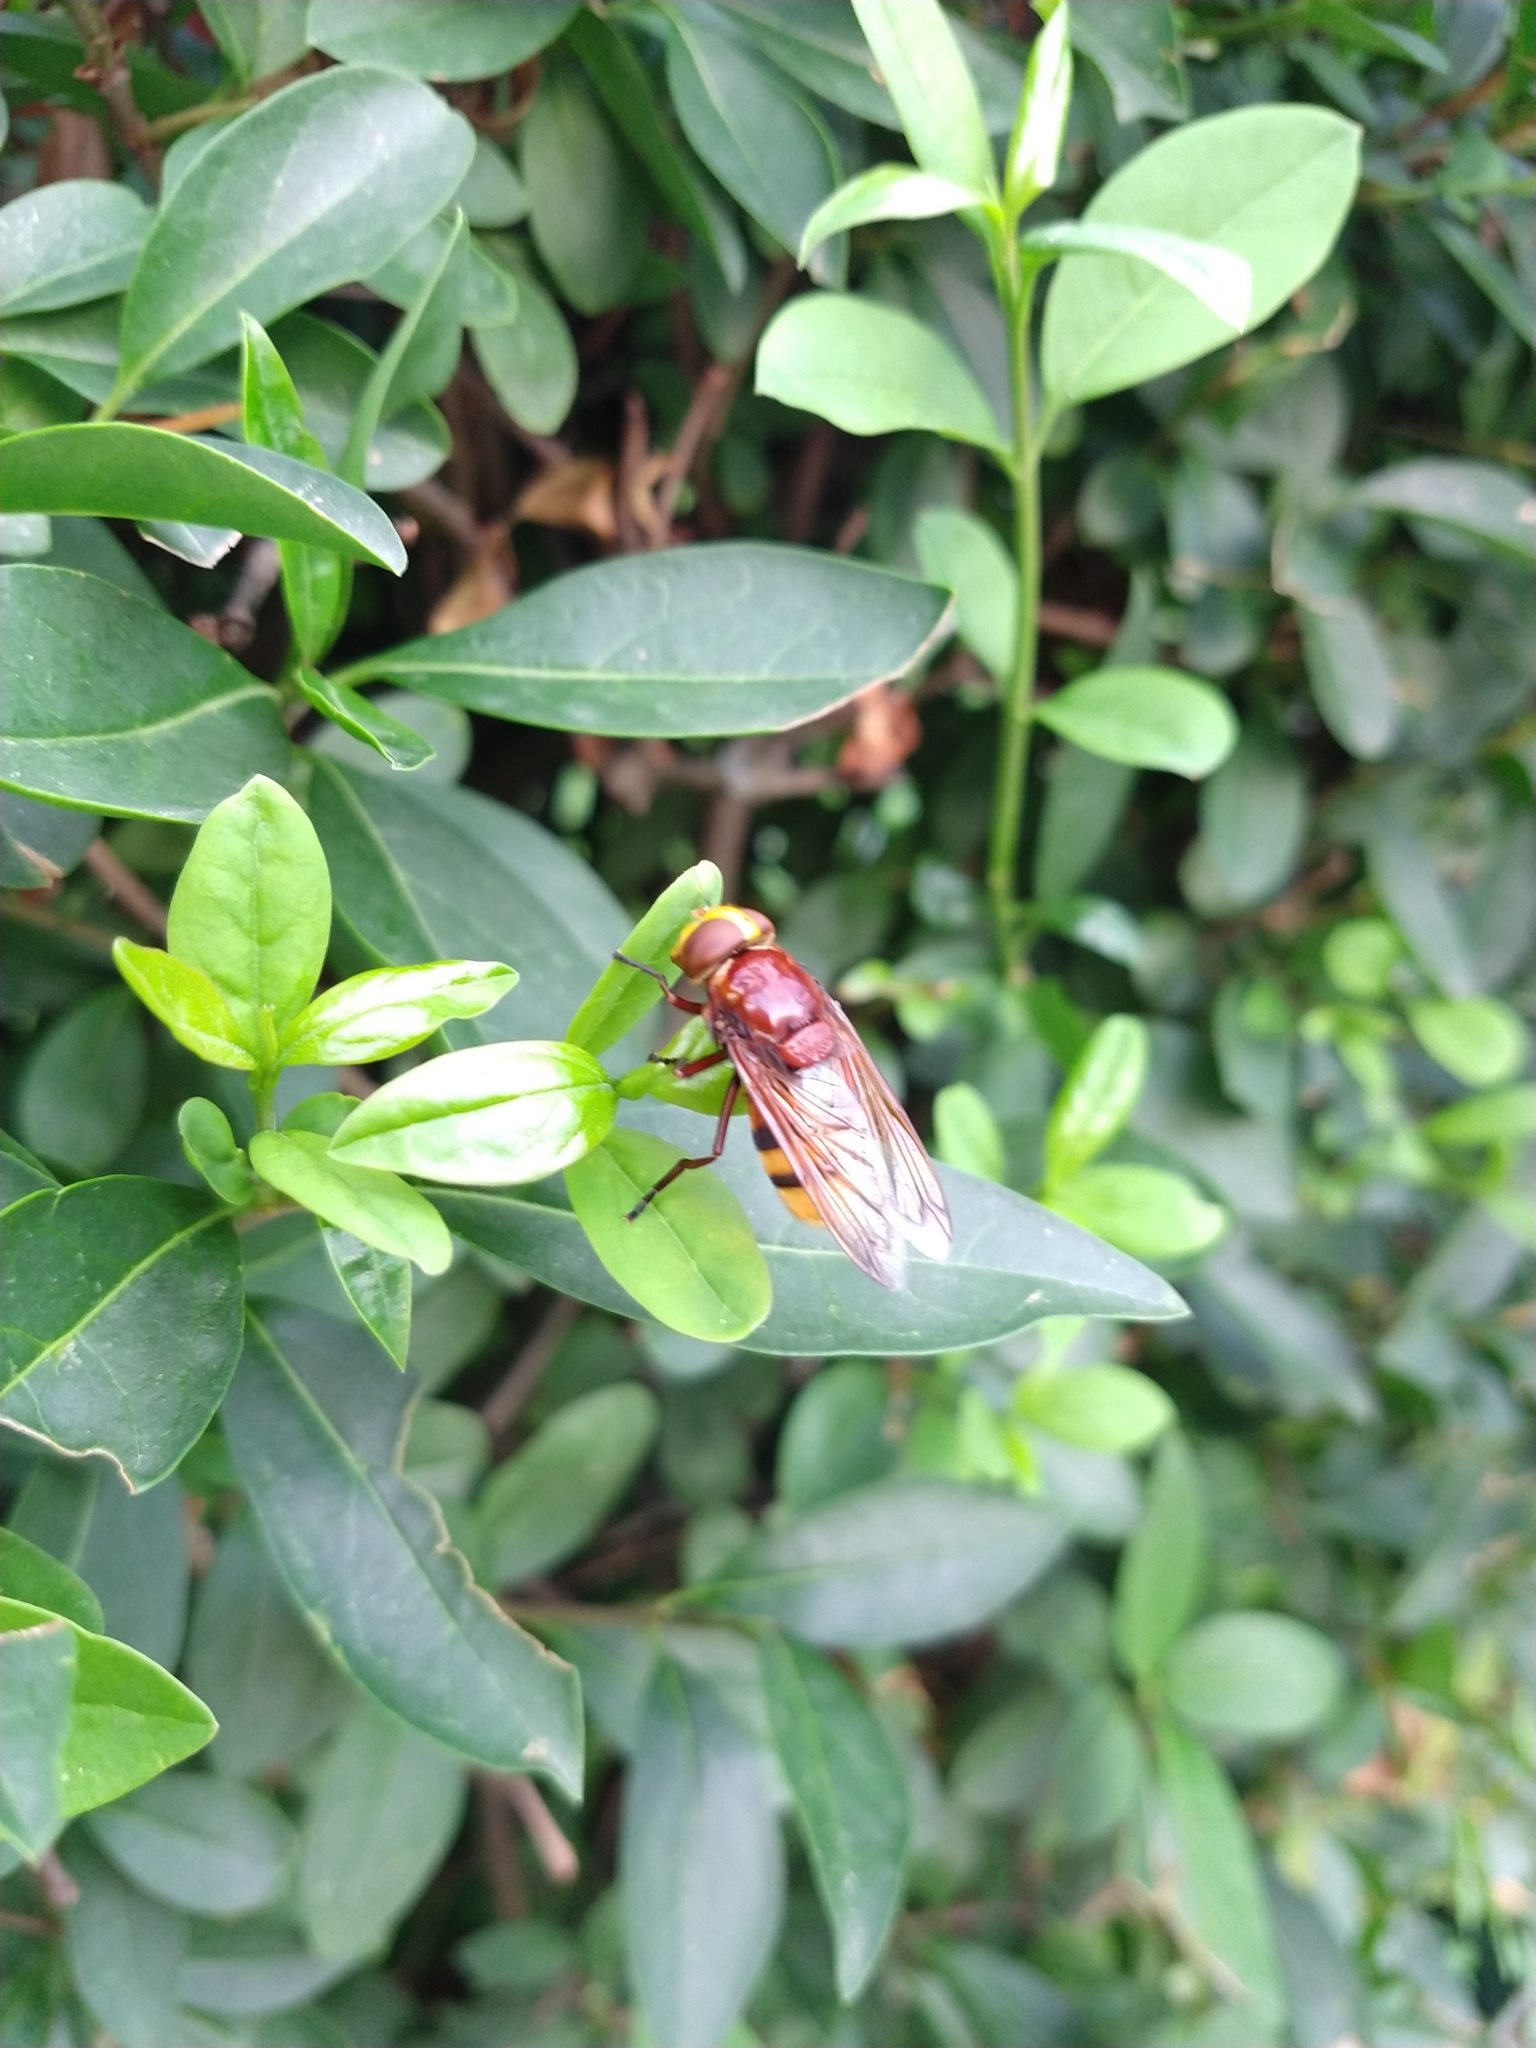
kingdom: Animalia
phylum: Arthropoda
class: Insecta
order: Diptera
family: Syrphidae
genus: Volucella
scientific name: Volucella zonaria
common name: Hornet hoverfly
